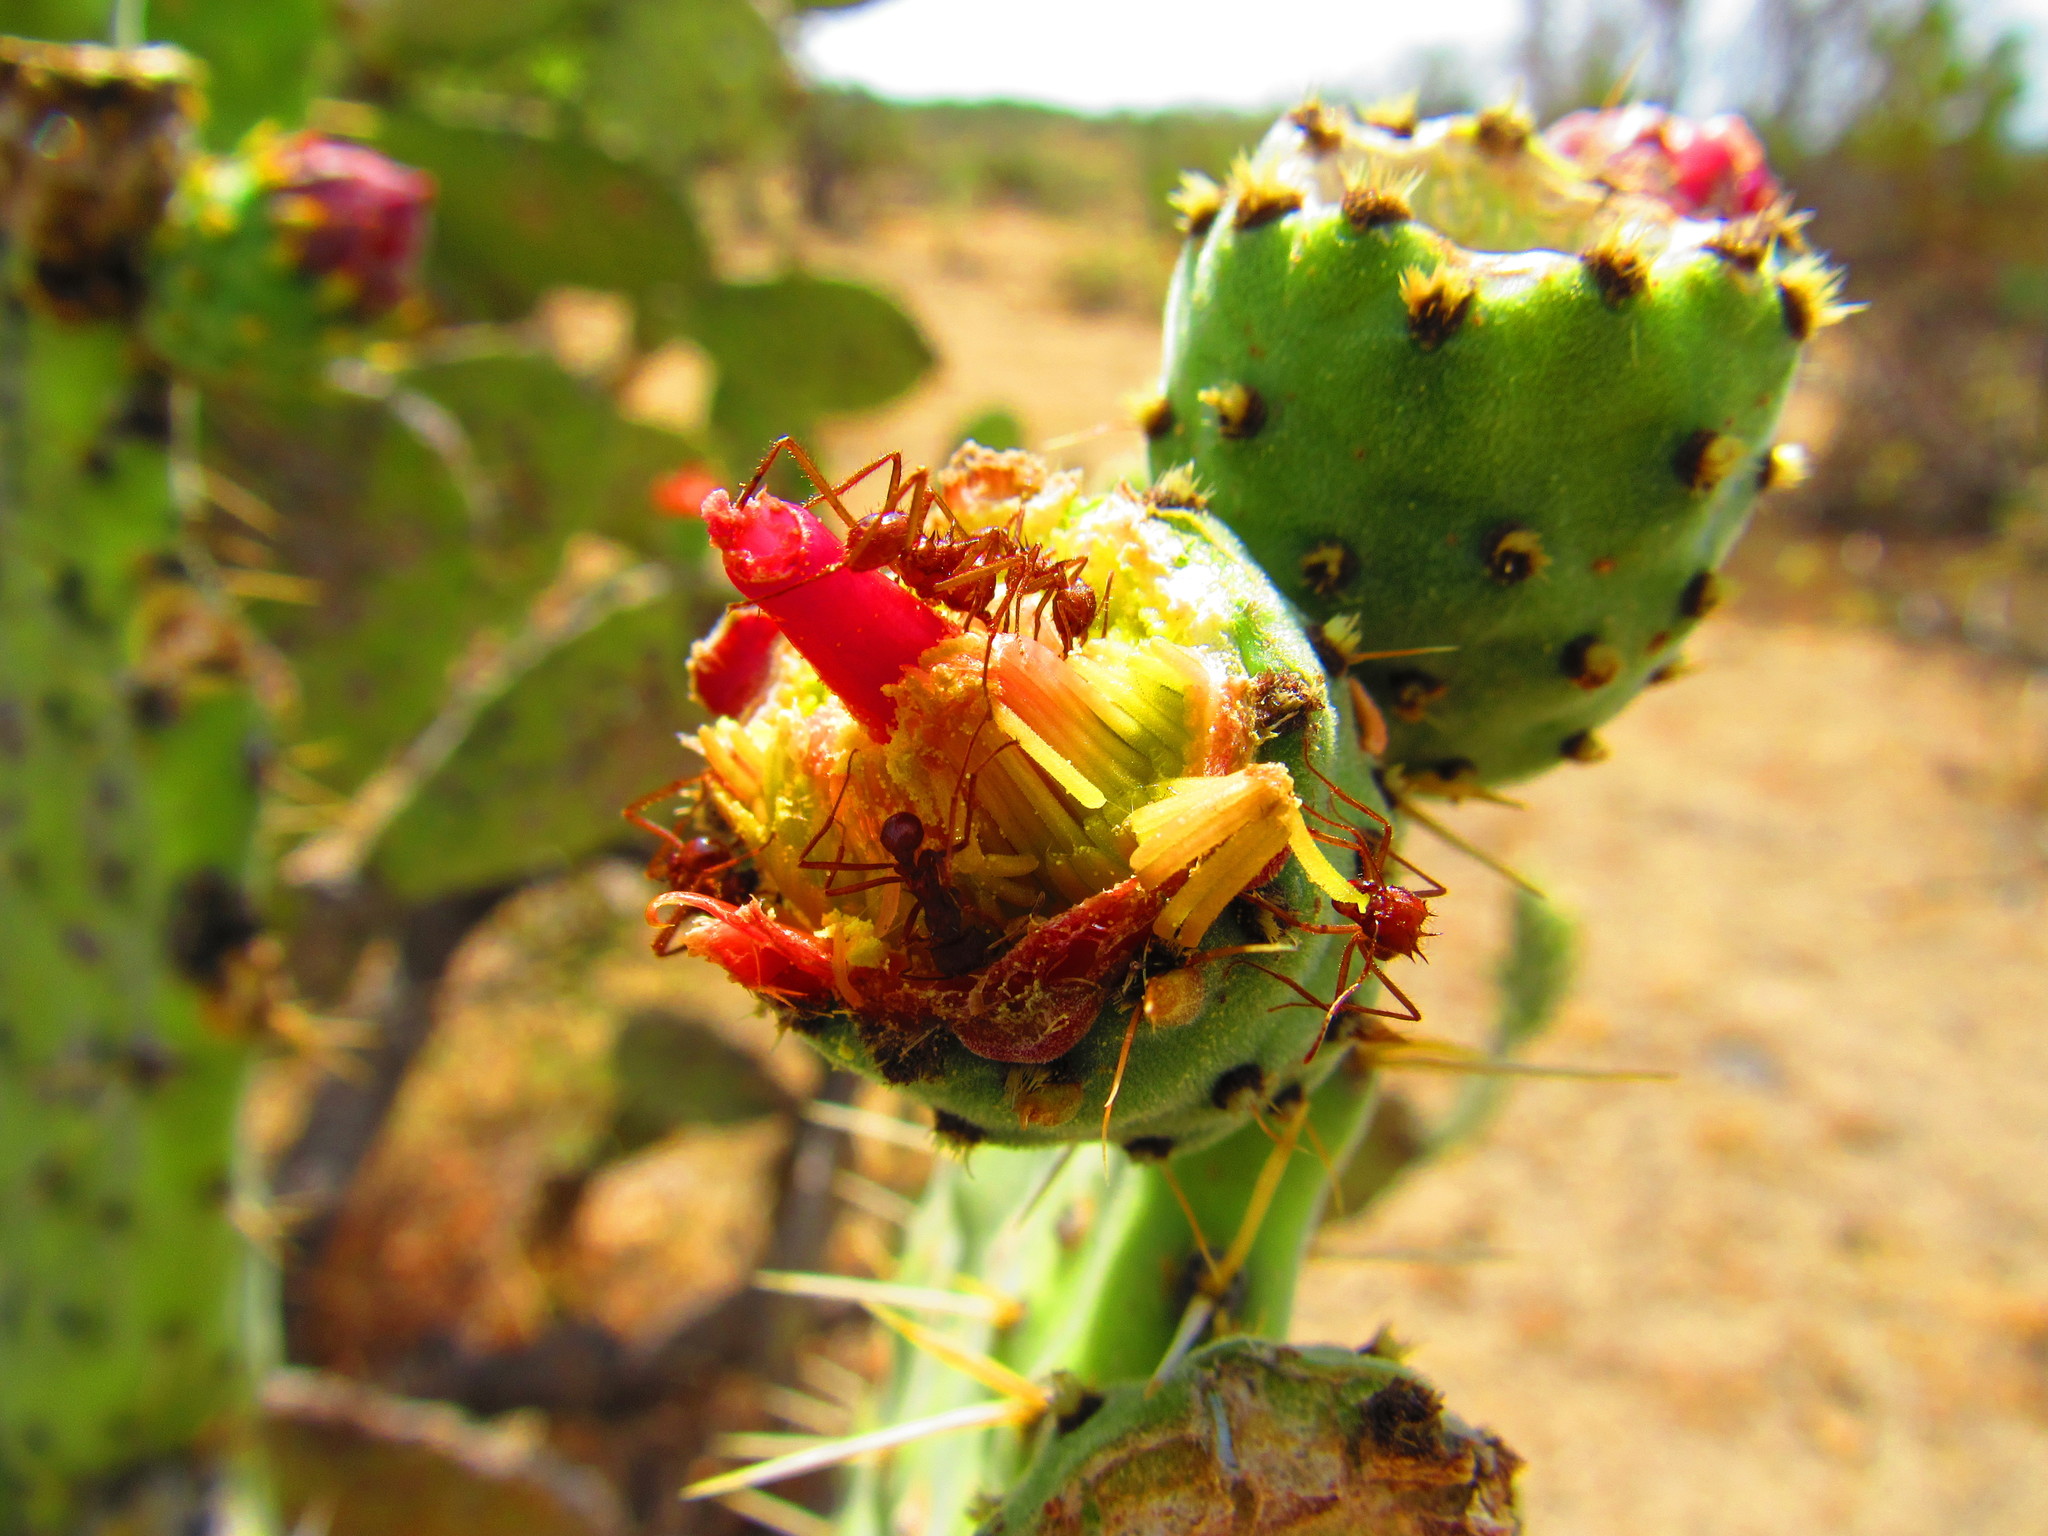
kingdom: Animalia
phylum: Arthropoda
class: Insecta
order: Hymenoptera
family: Formicidae
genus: Atta
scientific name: Atta mexicana
